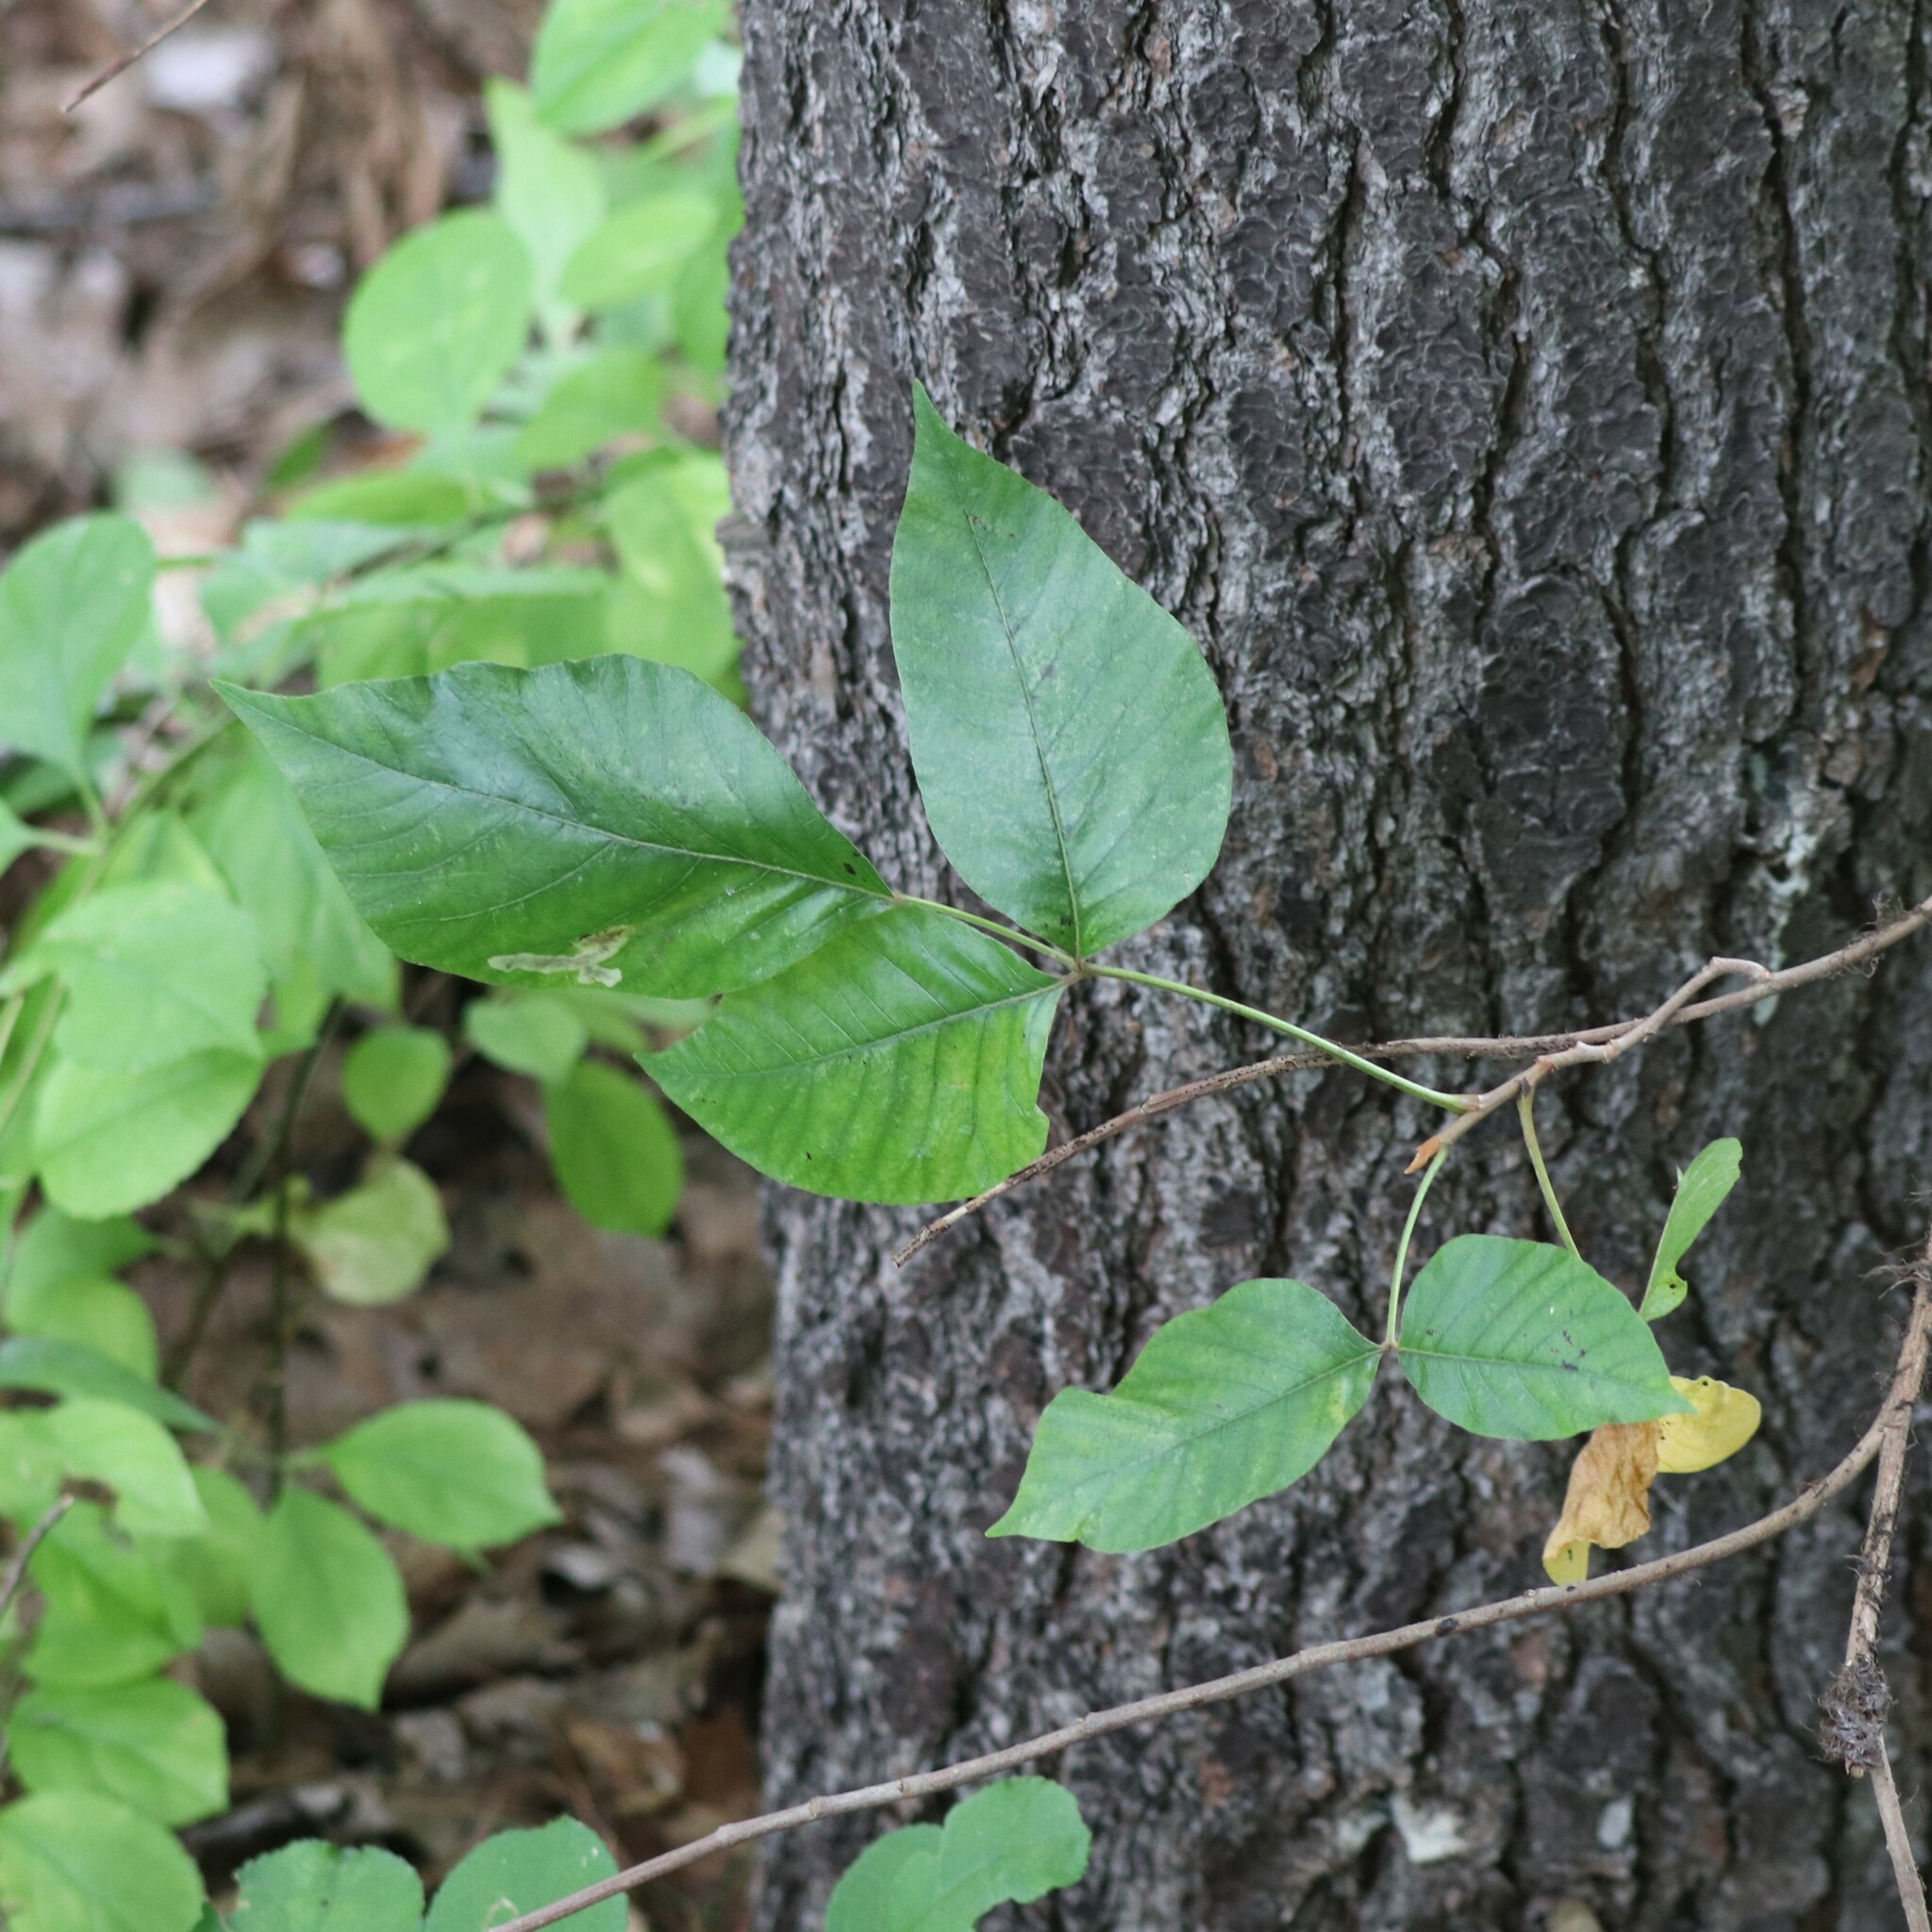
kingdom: Plantae
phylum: Tracheophyta
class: Magnoliopsida
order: Sapindales
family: Anacardiaceae
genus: Toxicodendron
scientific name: Toxicodendron radicans
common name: Poison ivy
